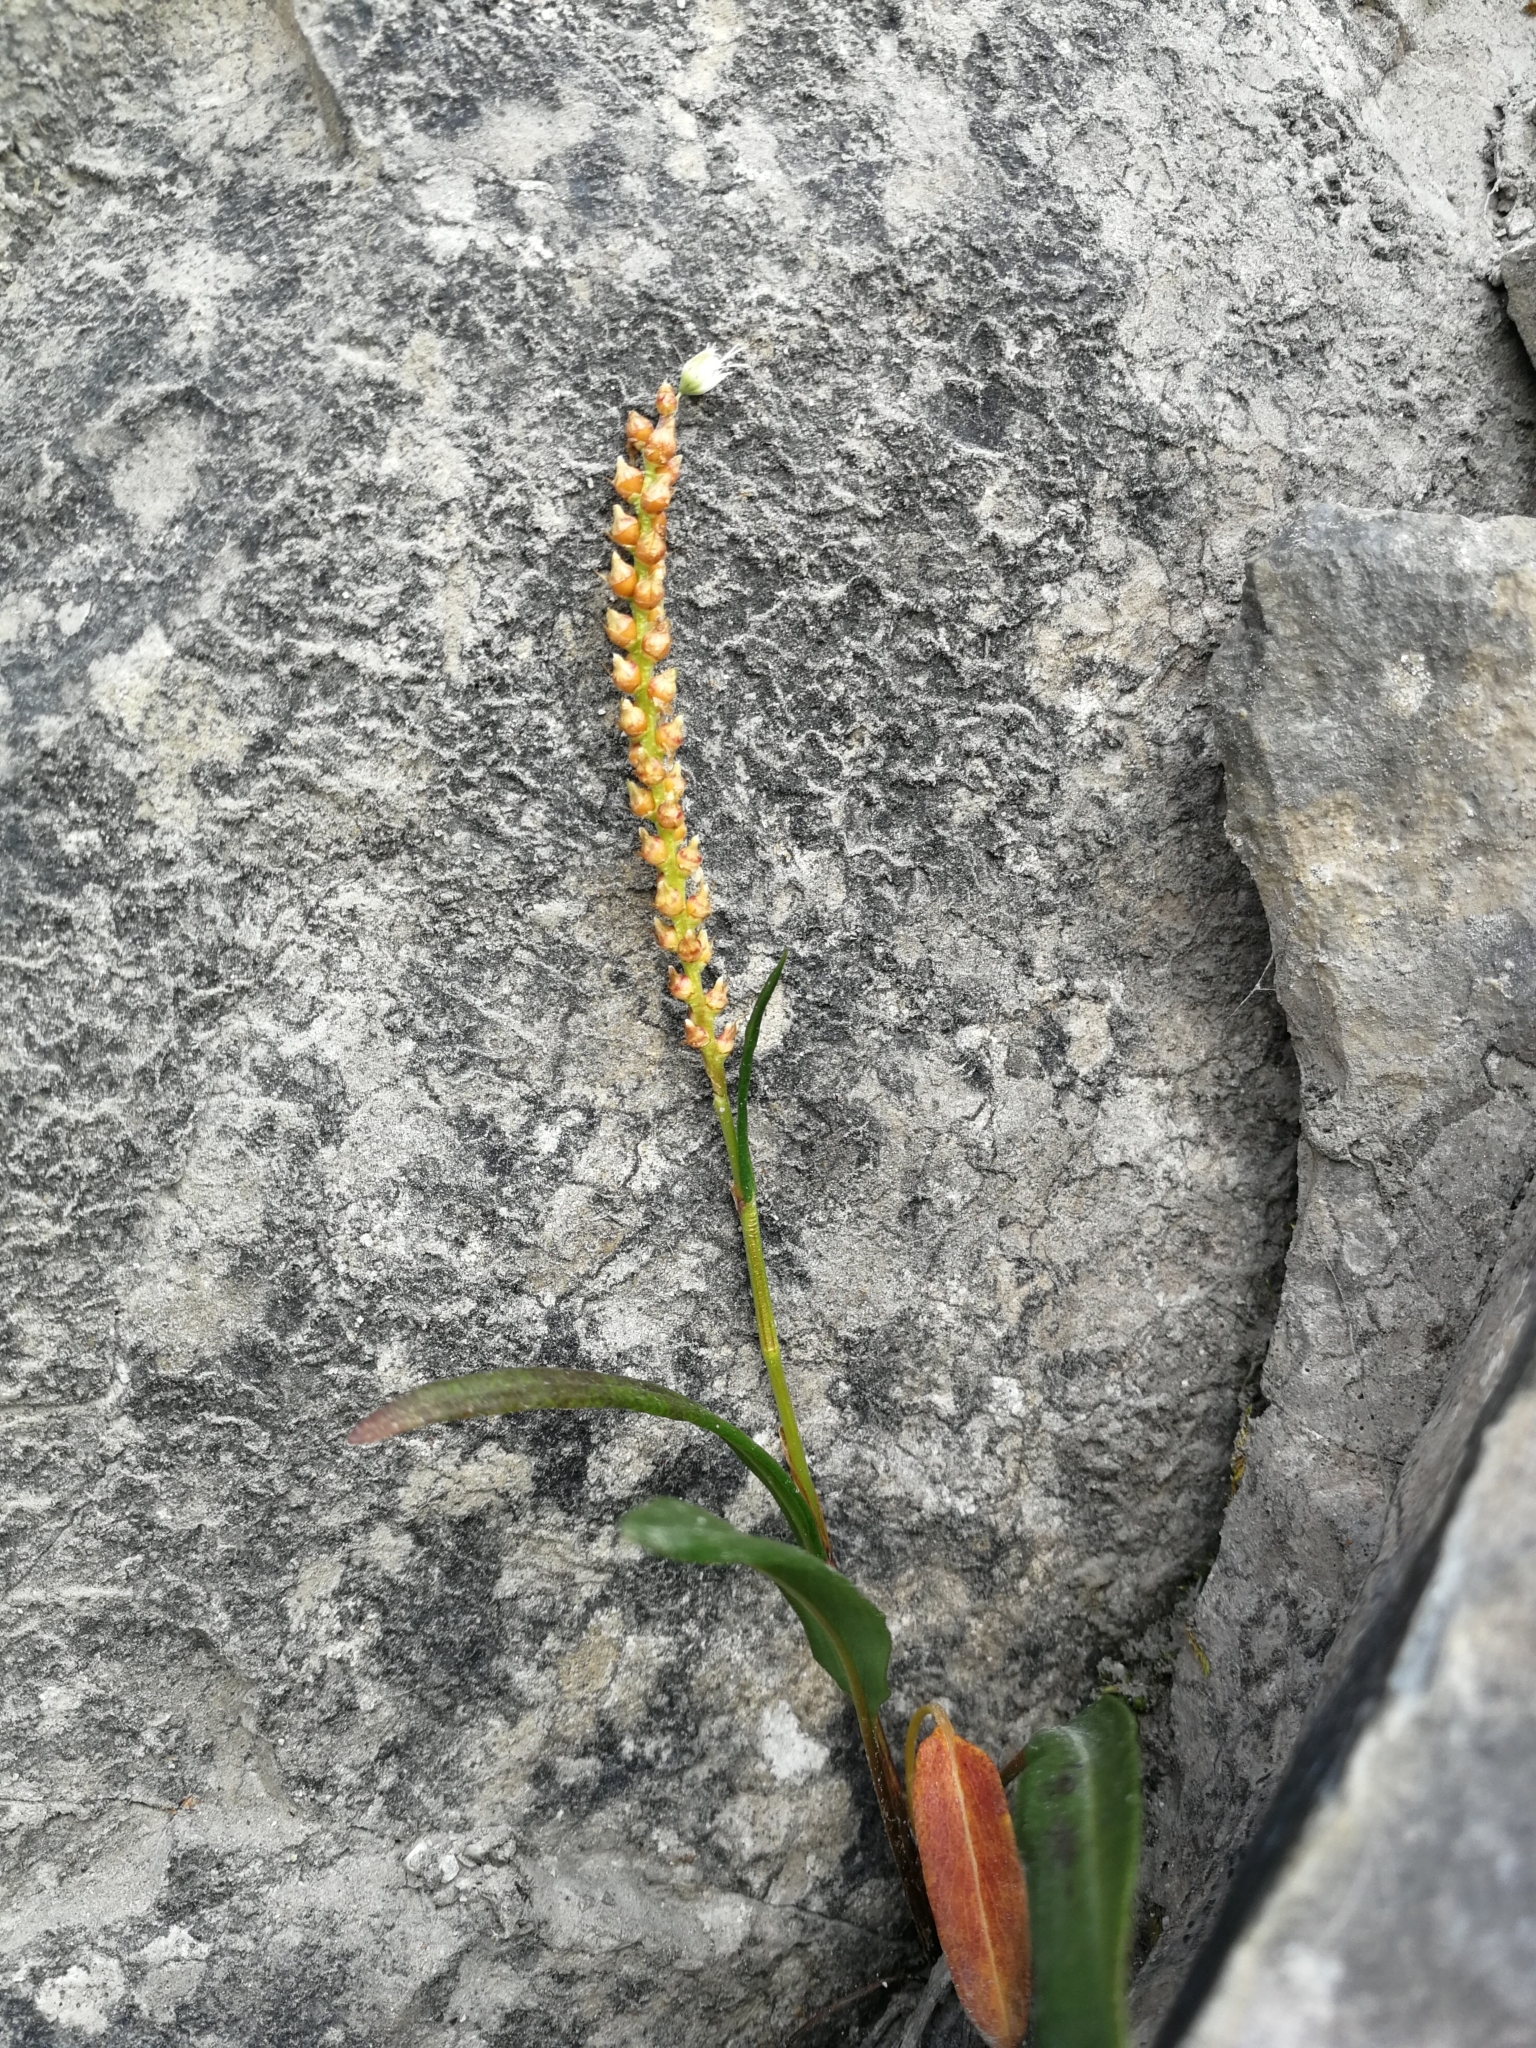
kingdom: Plantae
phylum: Tracheophyta
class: Magnoliopsida
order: Caryophyllales
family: Polygonaceae
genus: Bistorta
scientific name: Bistorta vivipara
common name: Alpine bistort
